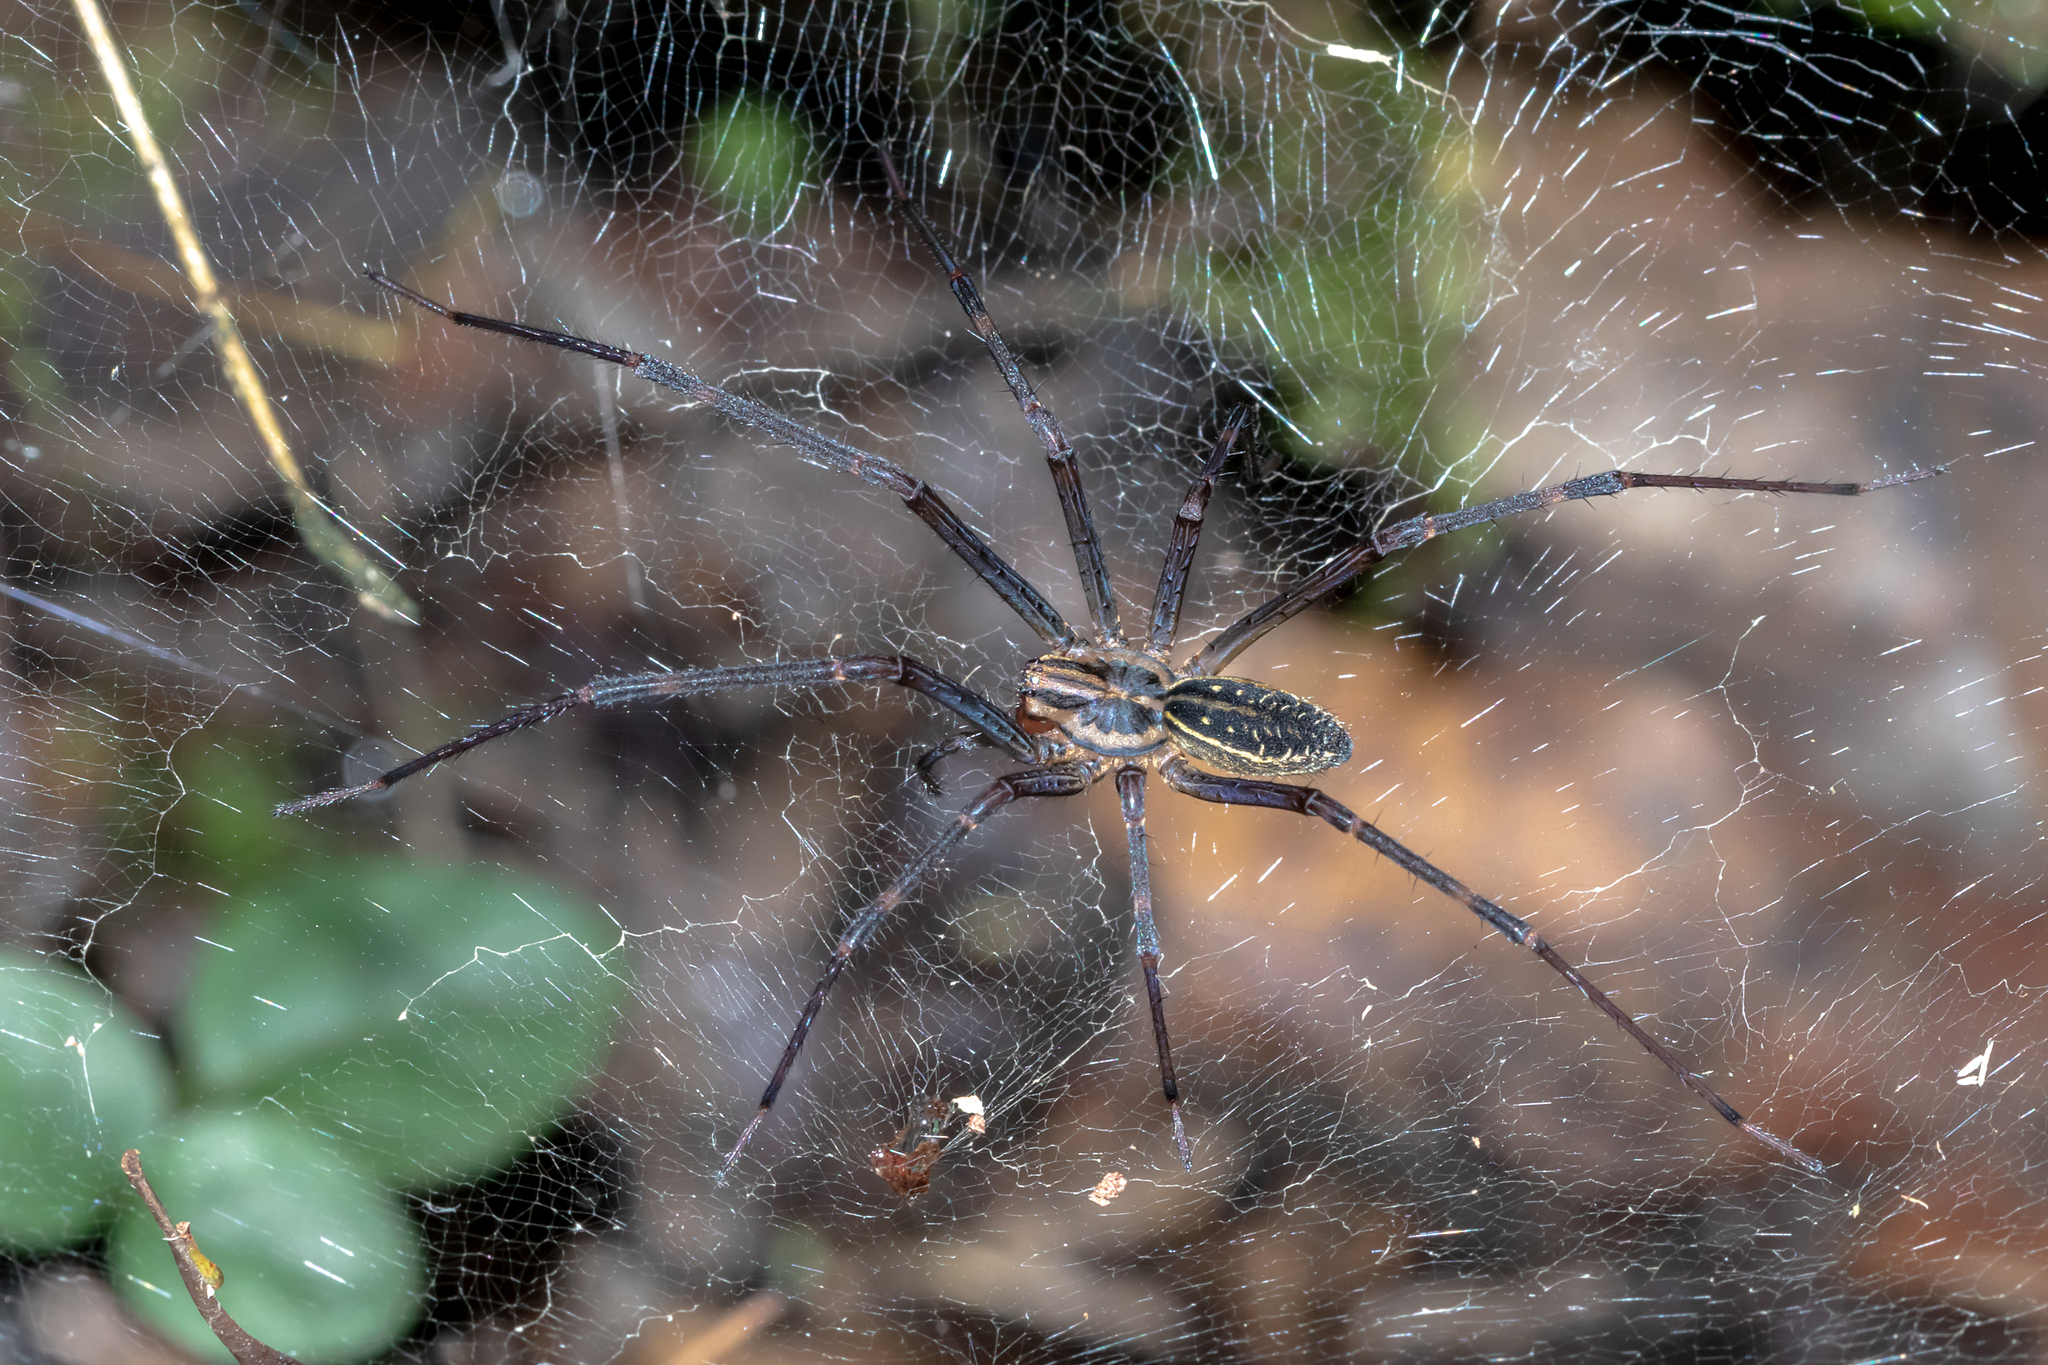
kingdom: Animalia
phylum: Arthropoda
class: Arachnida
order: Araneae
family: Desidae
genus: Corasoides
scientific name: Corasoides australis
